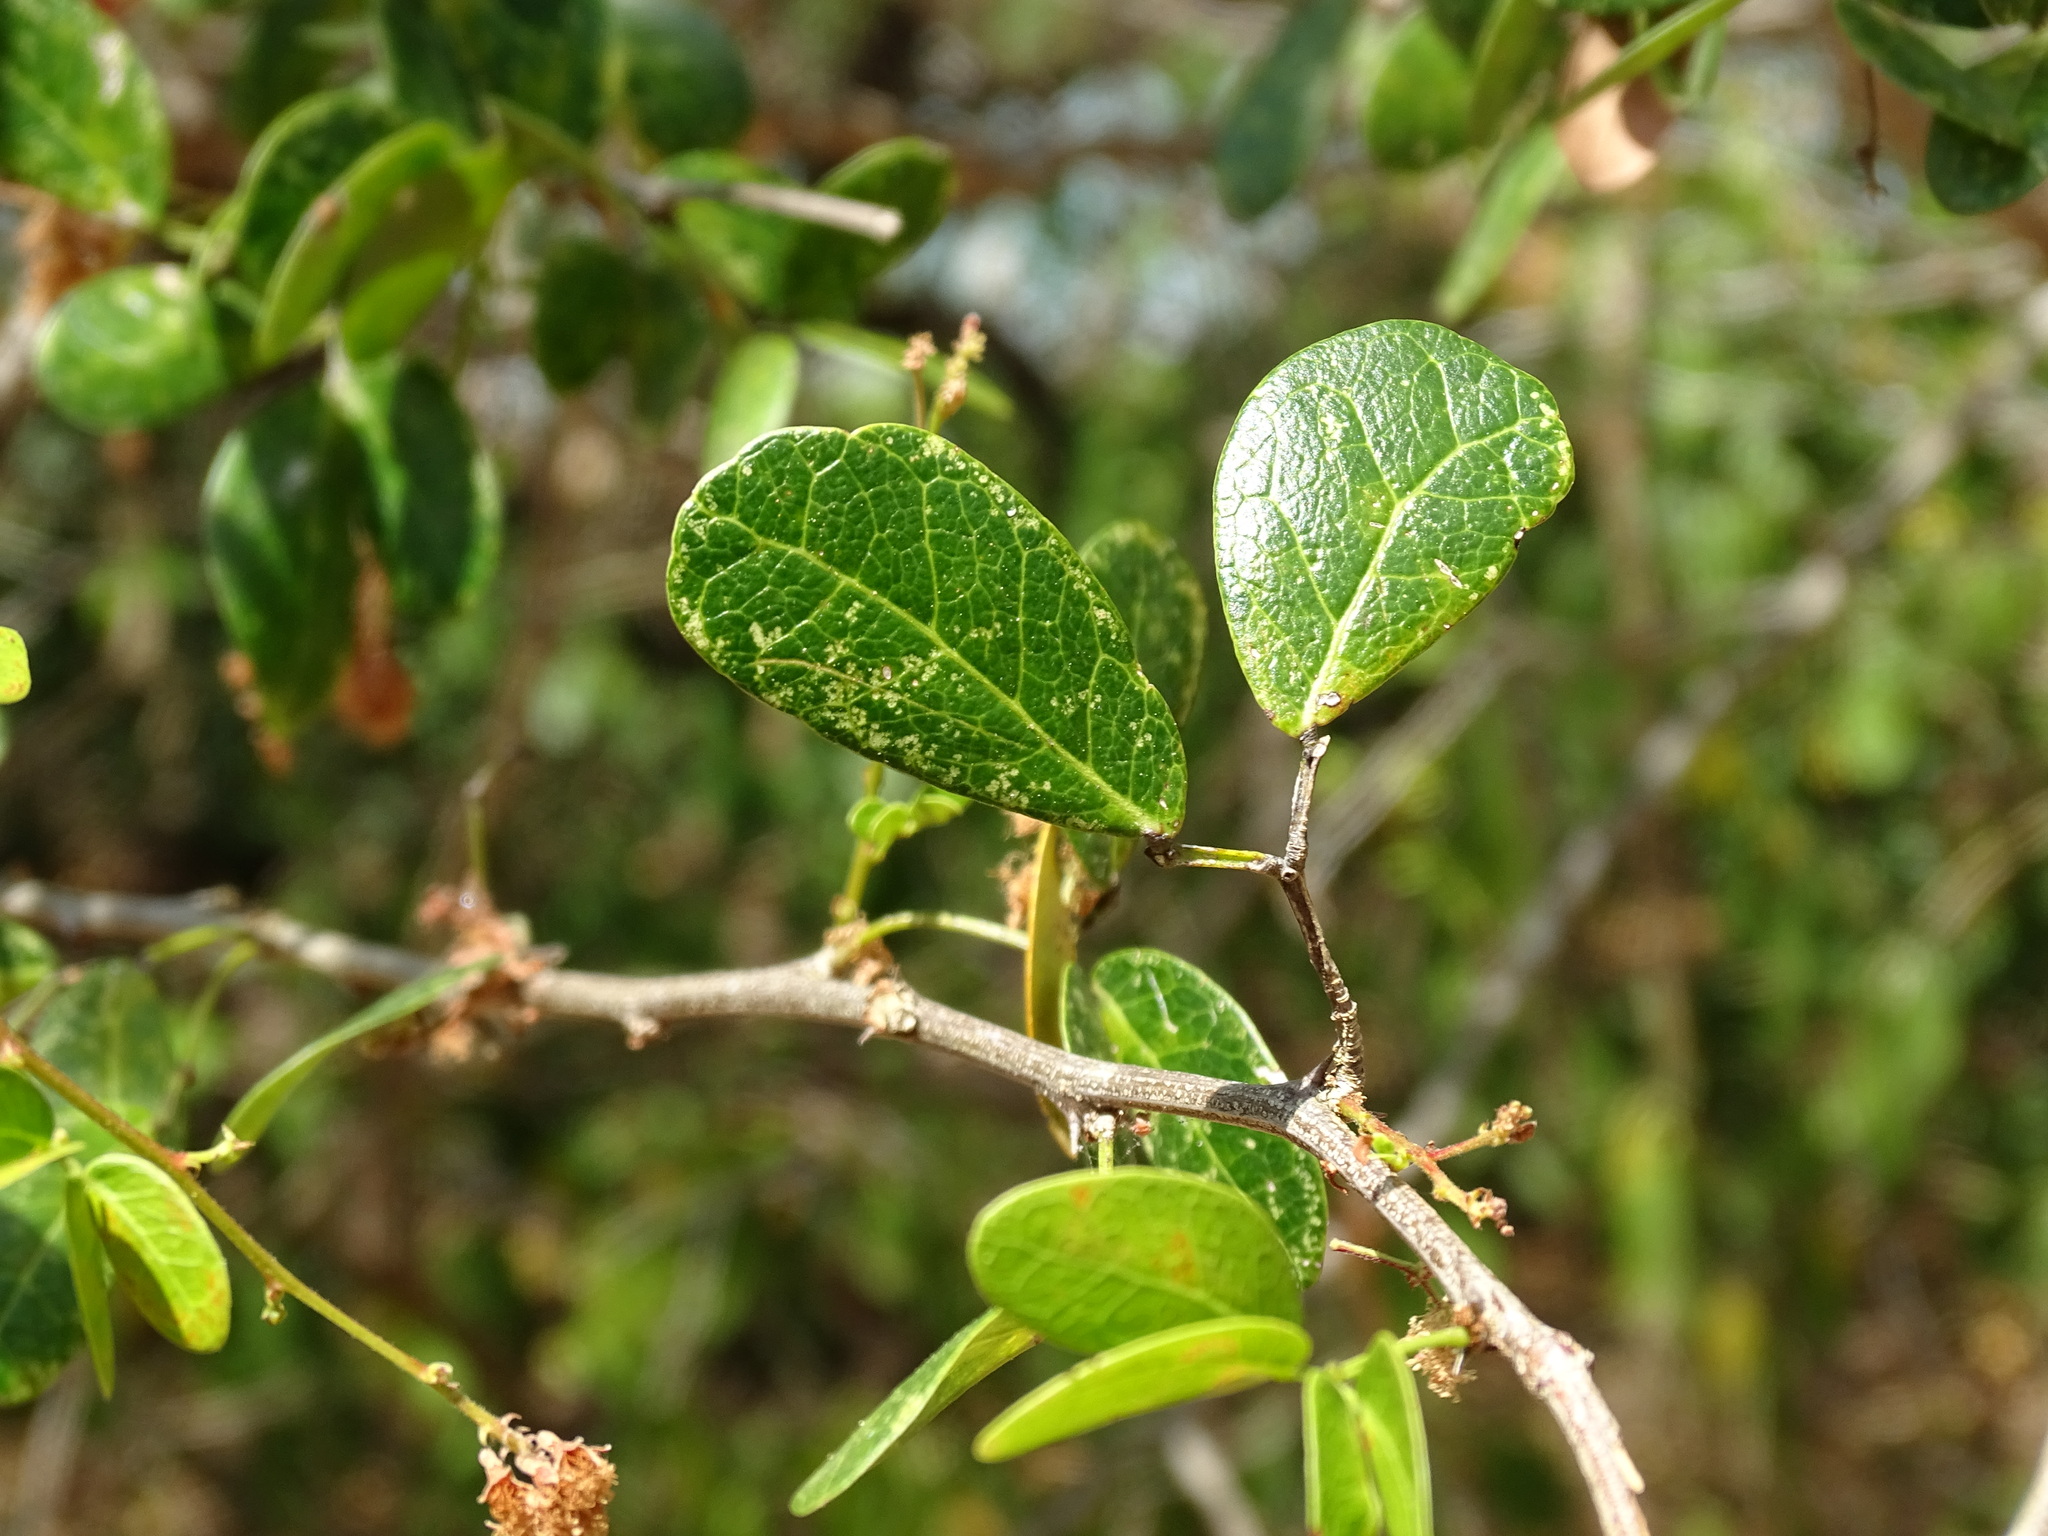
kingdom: Plantae
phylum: Tracheophyta
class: Magnoliopsida
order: Fabales
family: Fabaceae
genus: Pithecellobium
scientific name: Pithecellobium unguis-cati
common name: Cat's-claw
